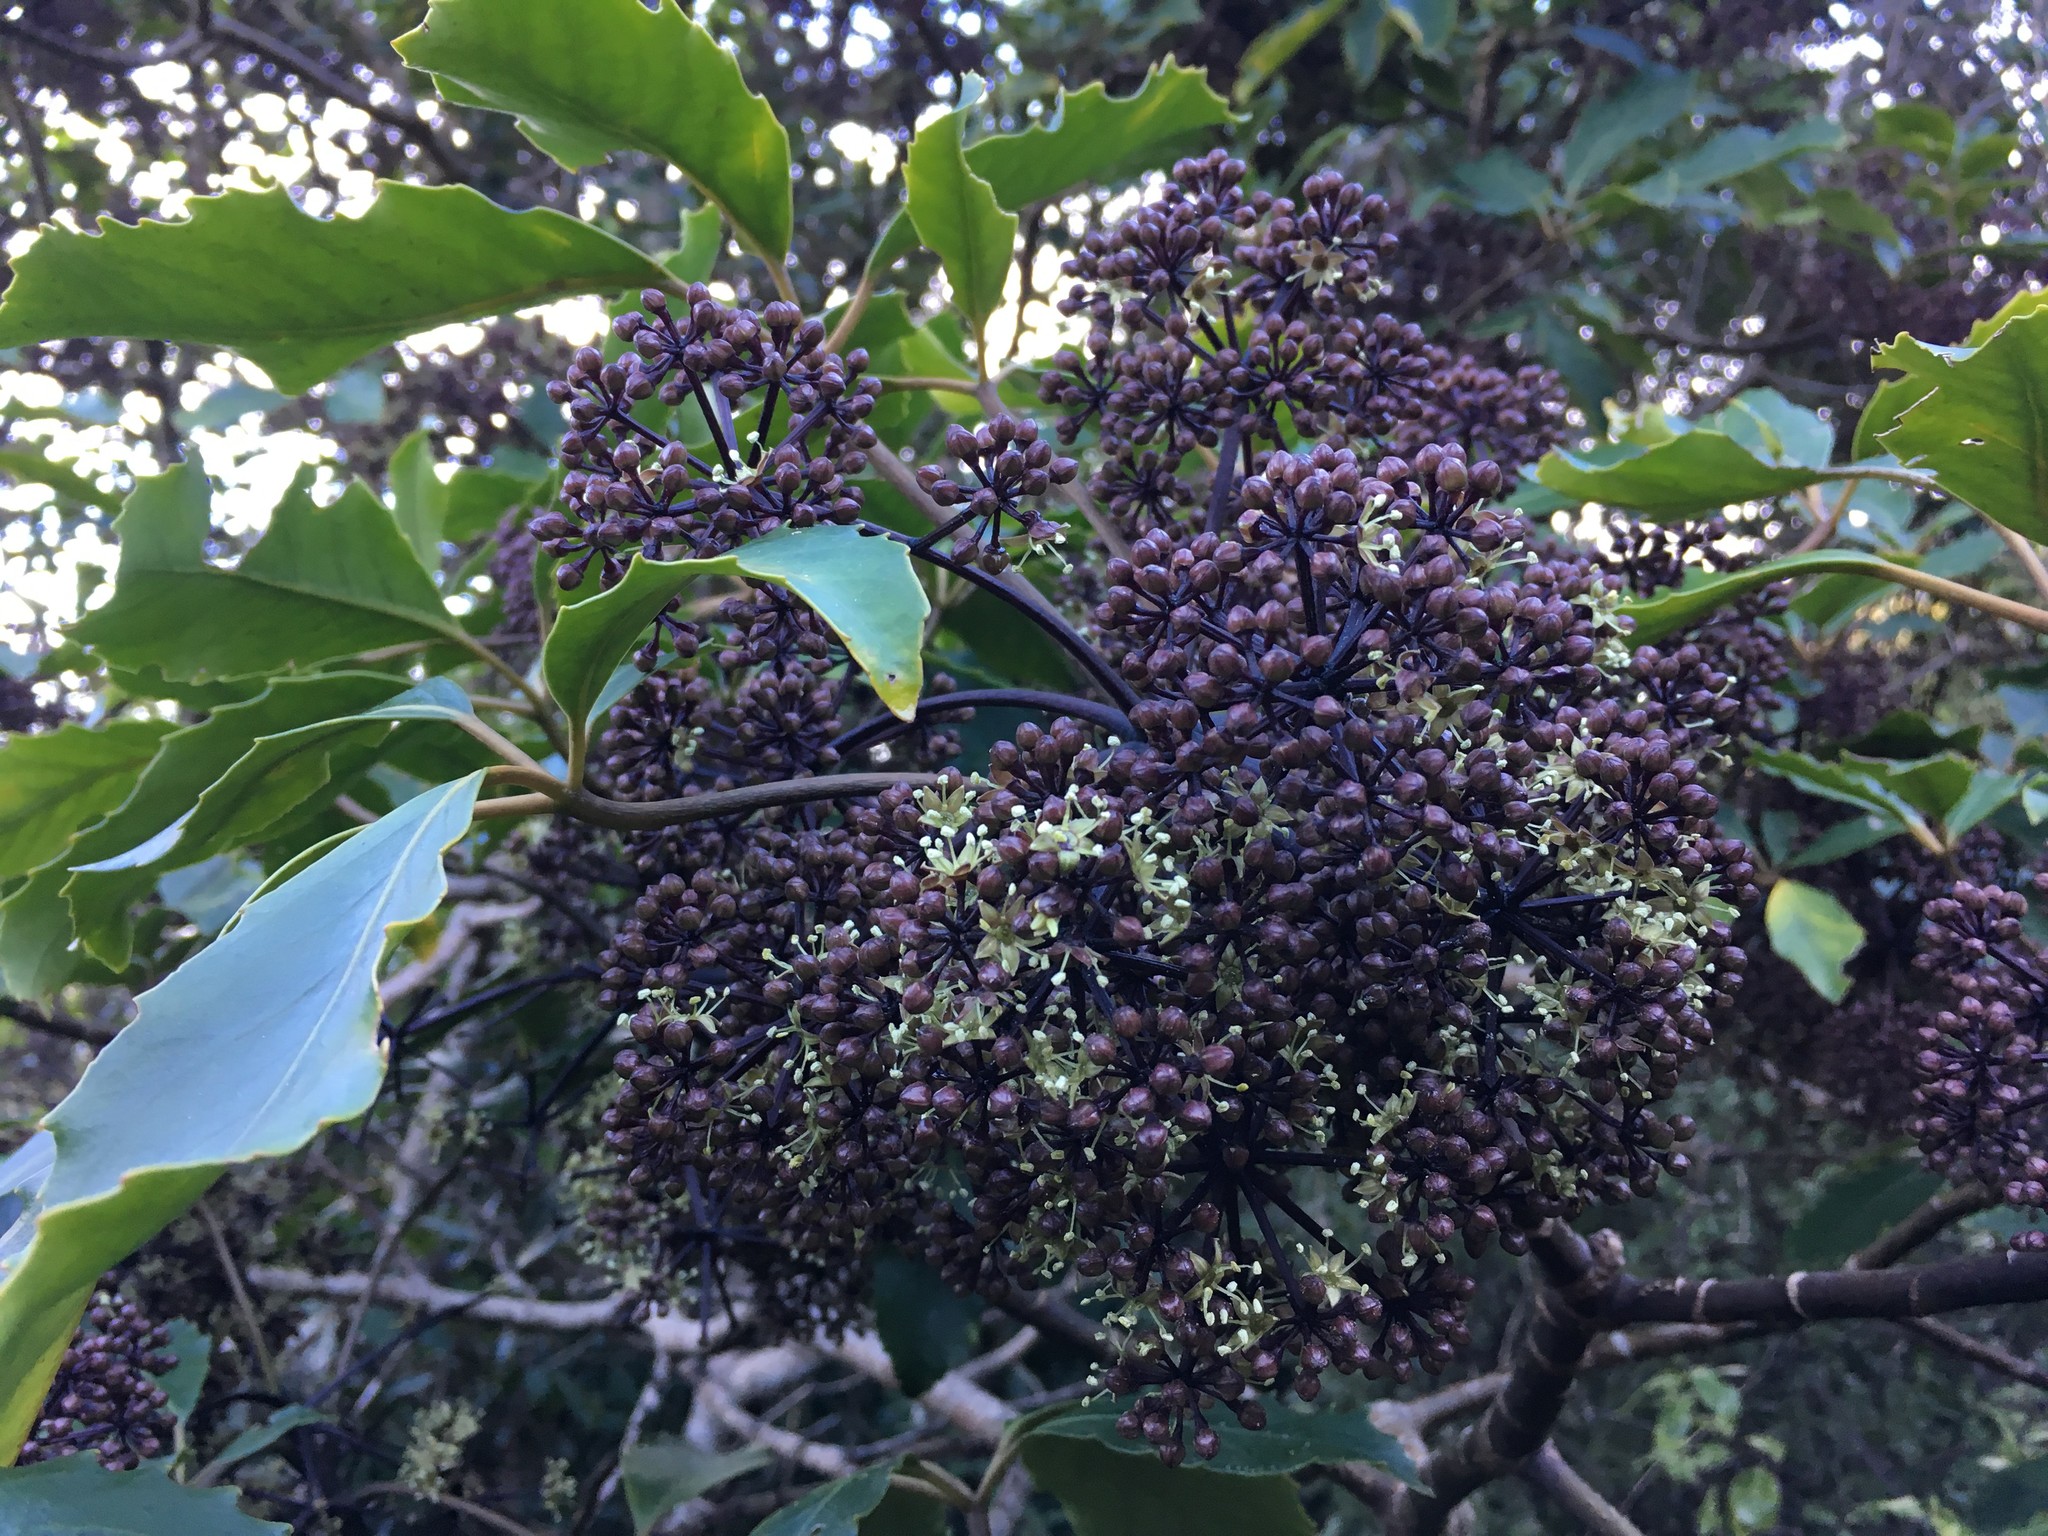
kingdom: Plantae
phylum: Tracheophyta
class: Magnoliopsida
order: Apiales
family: Araliaceae
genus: Neopanax
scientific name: Neopanax arboreus
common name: Five-fingers
